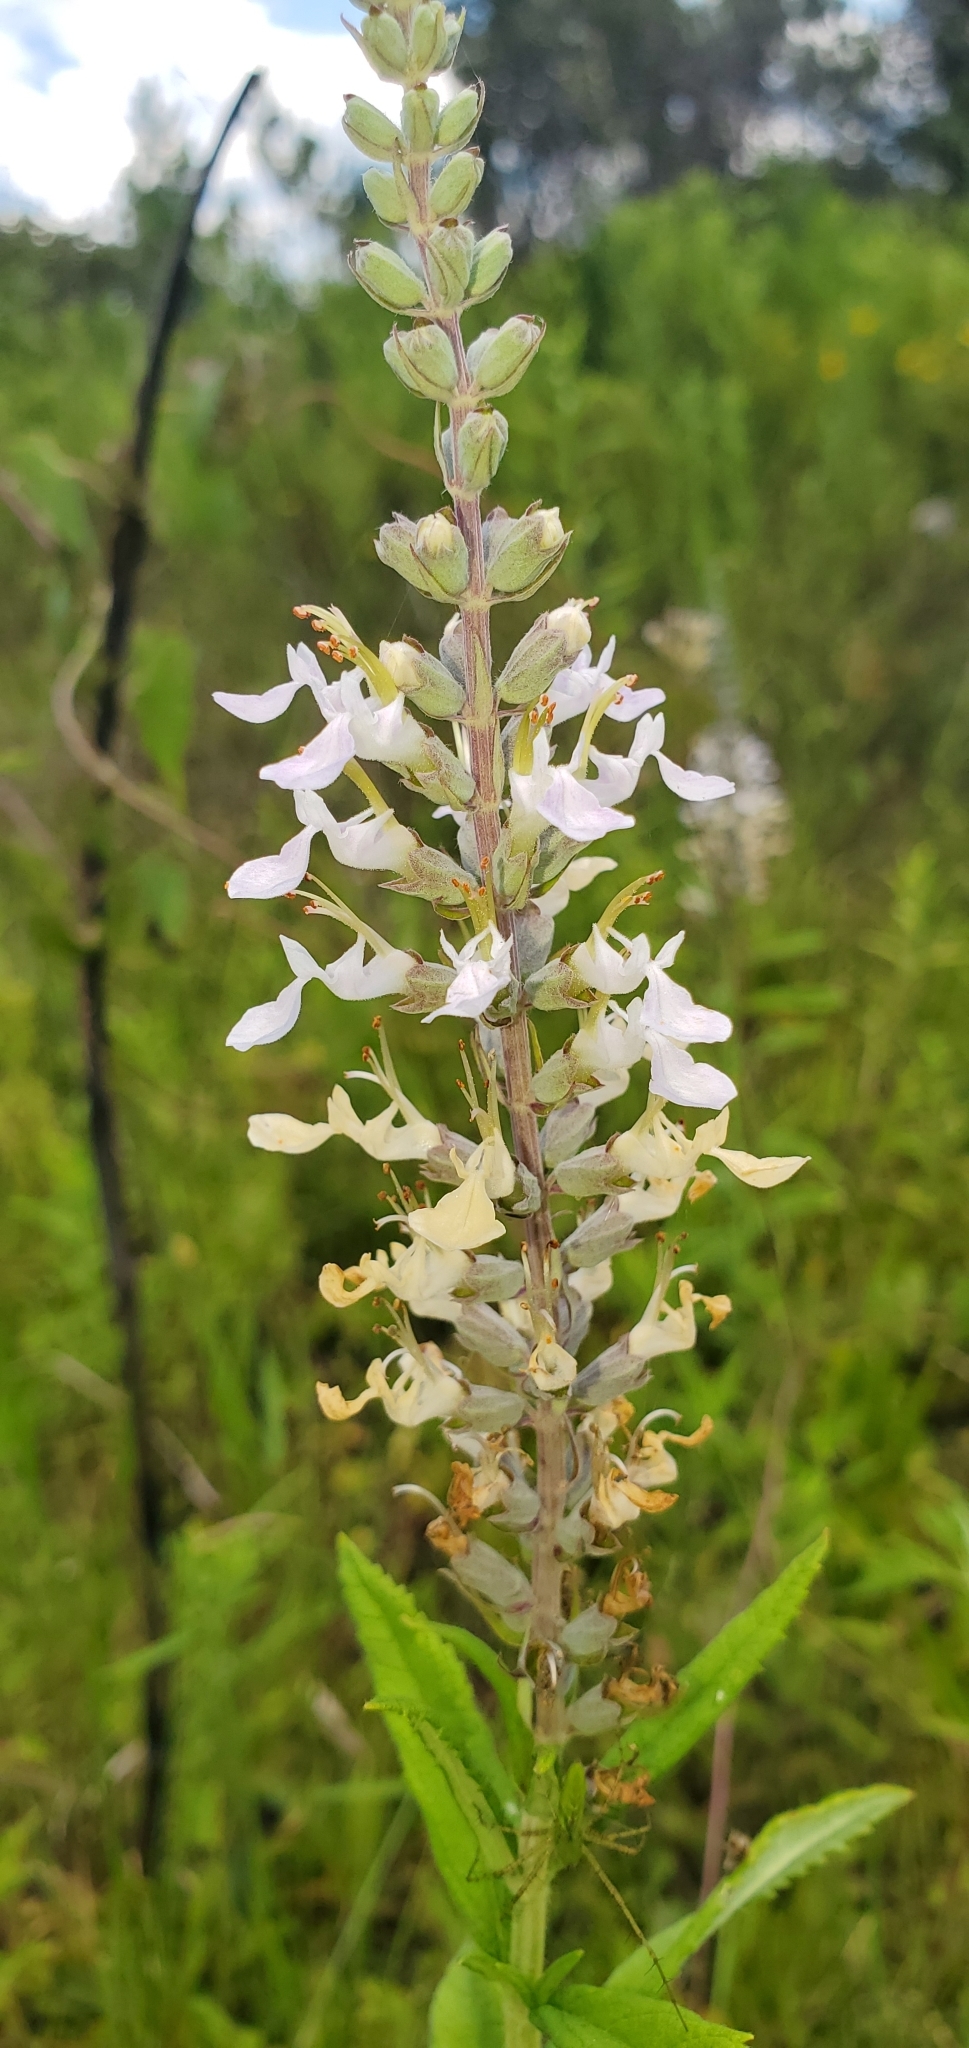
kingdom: Plantae
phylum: Tracheophyta
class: Magnoliopsida
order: Lamiales
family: Lamiaceae
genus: Teucrium
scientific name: Teucrium canadense
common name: American germander
